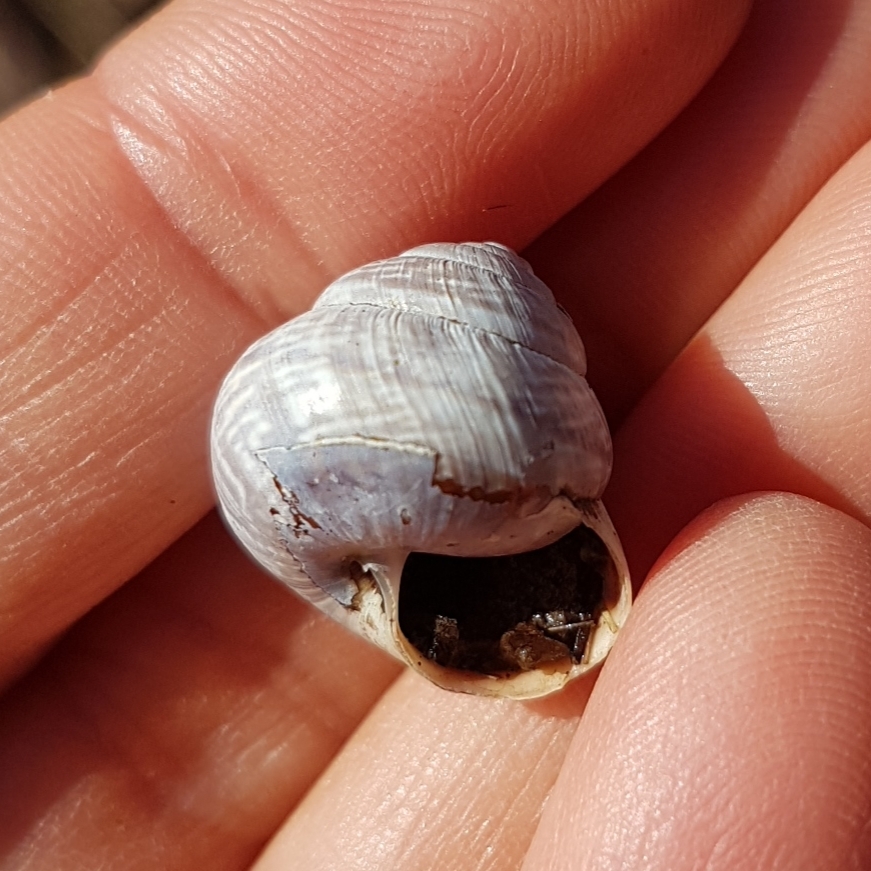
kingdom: Animalia
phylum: Mollusca
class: Gastropoda
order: Stylommatophora
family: Helicidae
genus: Arianta
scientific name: Arianta arbustorum
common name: Copse snail
